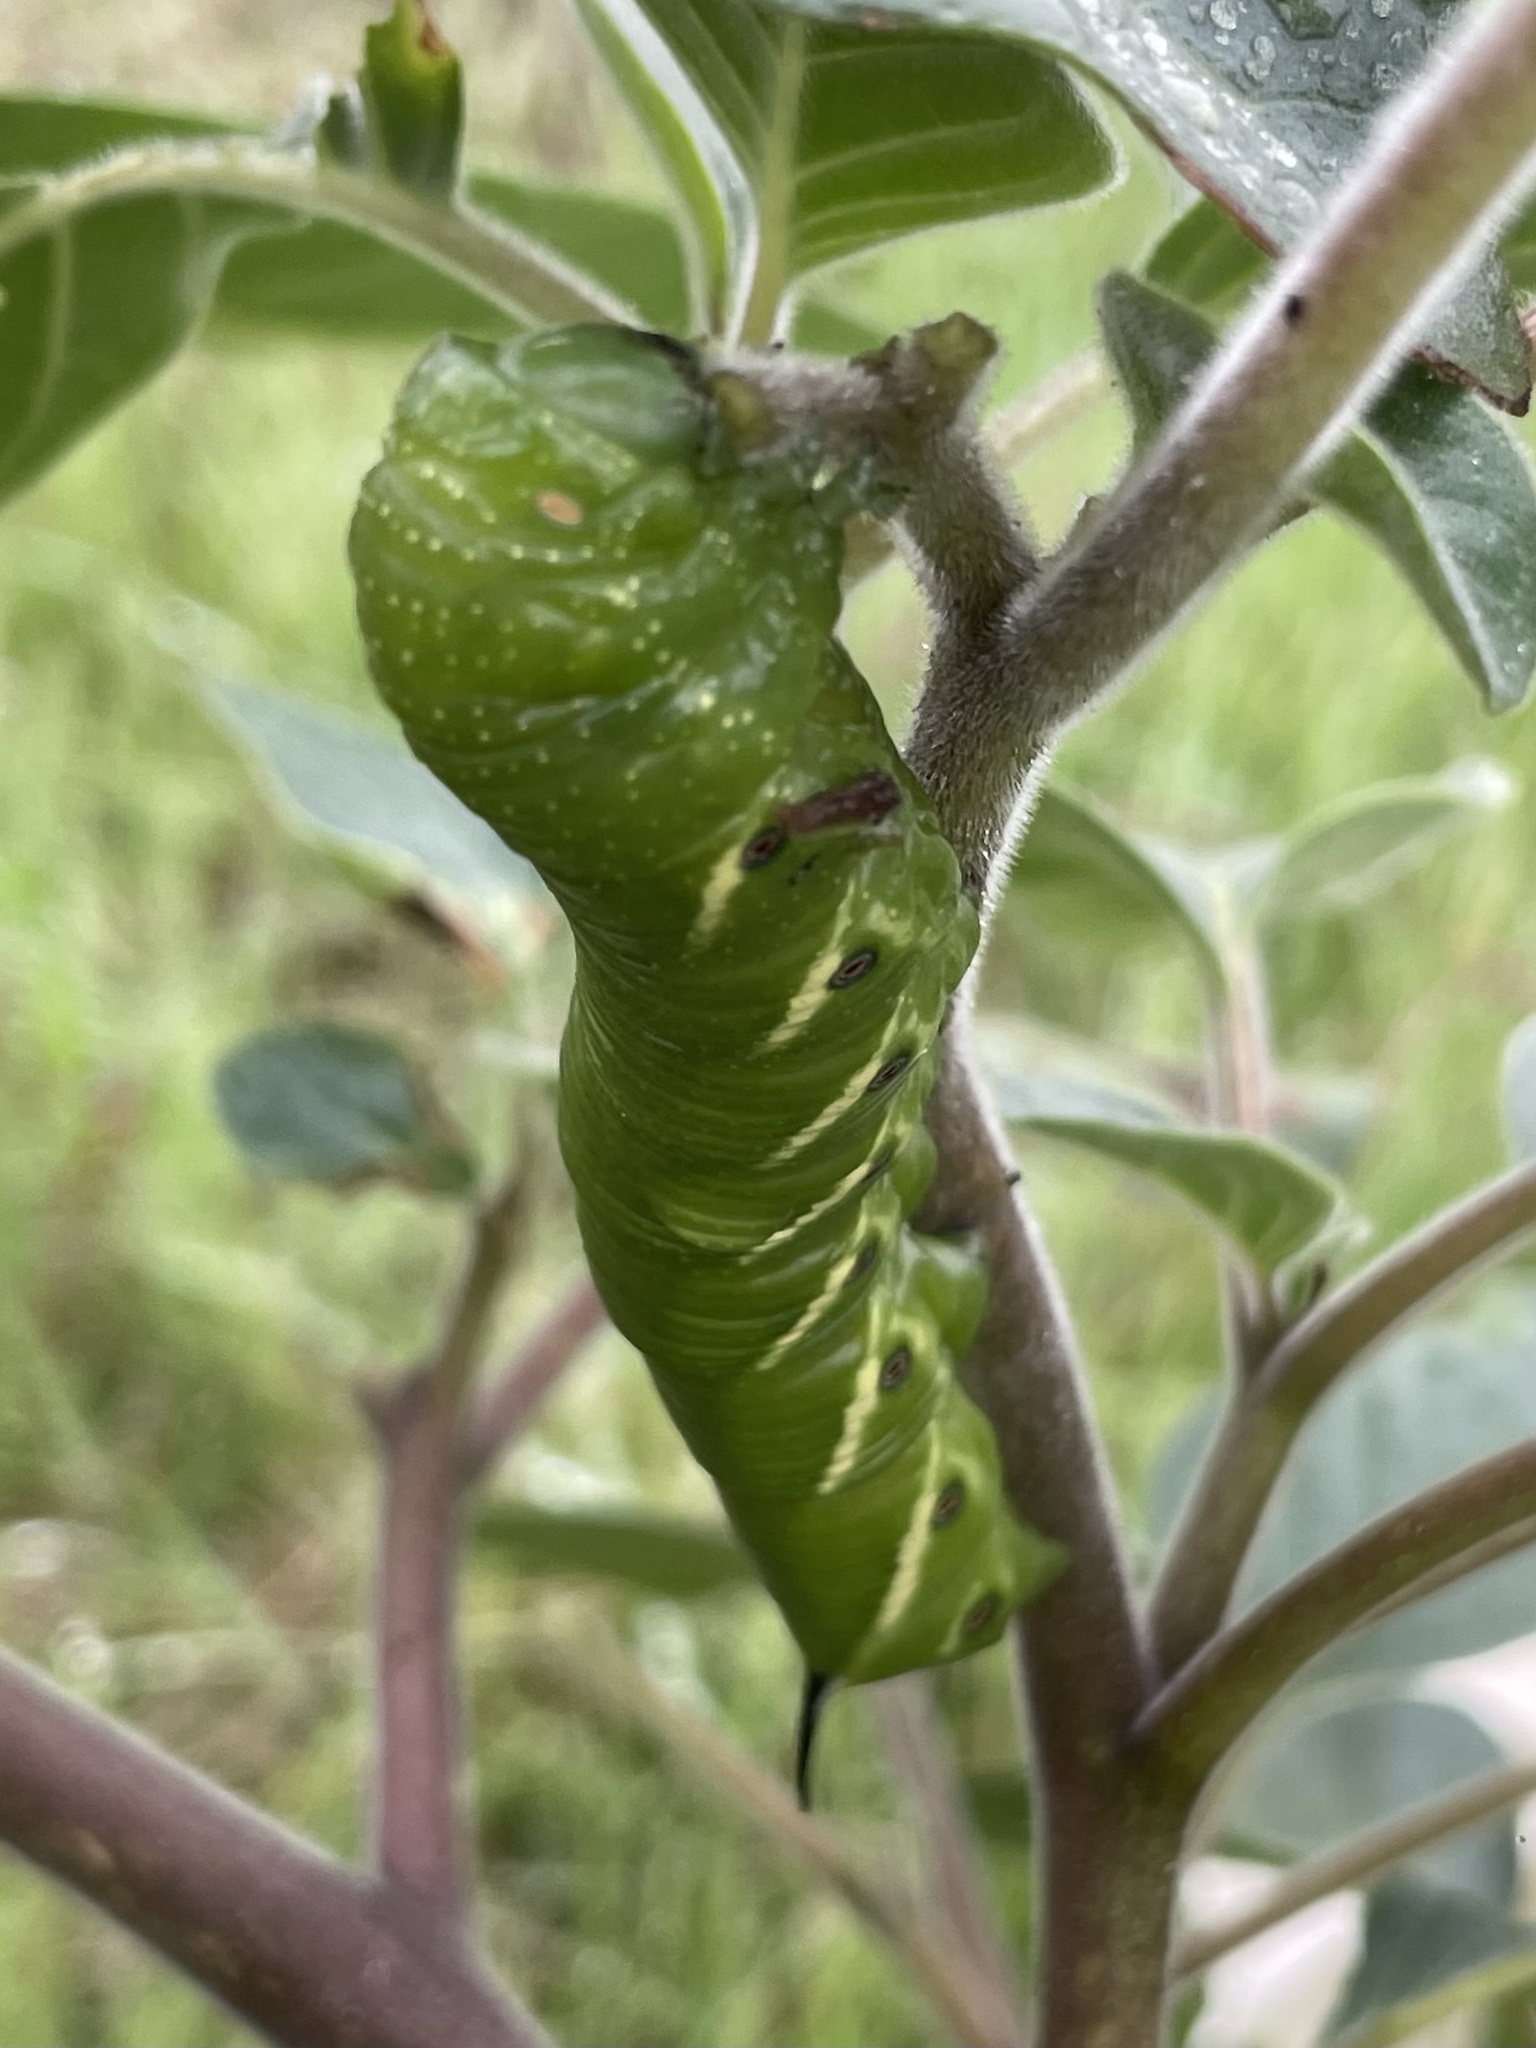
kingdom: Animalia
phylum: Arthropoda
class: Insecta
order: Lepidoptera
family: Sphingidae
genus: Manduca
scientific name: Manduca quinquemaculatus
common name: Five-spotted hawk-moth
